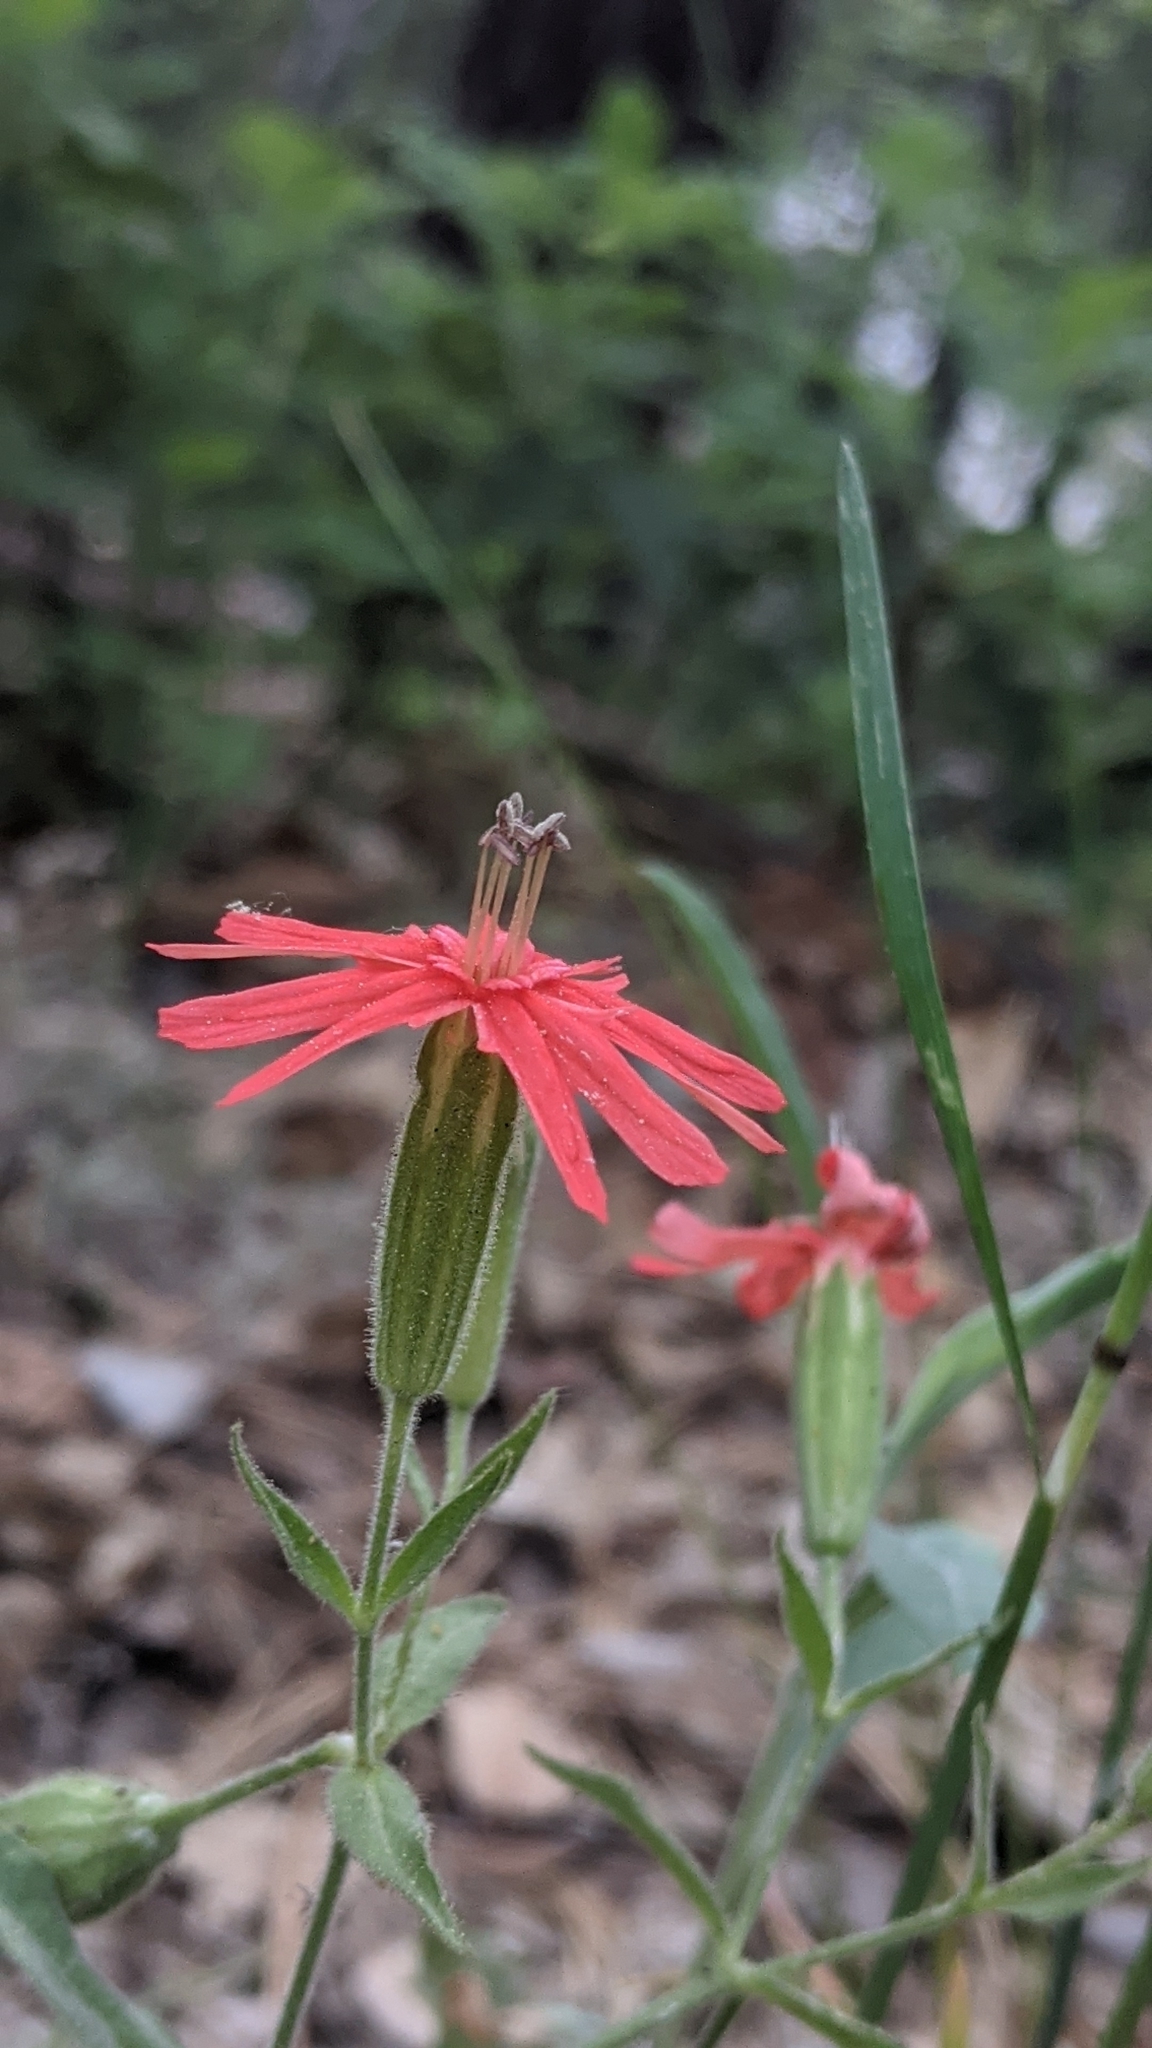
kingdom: Plantae
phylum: Tracheophyta
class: Magnoliopsida
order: Caryophyllales
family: Caryophyllaceae
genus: Silene
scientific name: Silene laciniata
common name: Indian-pink
